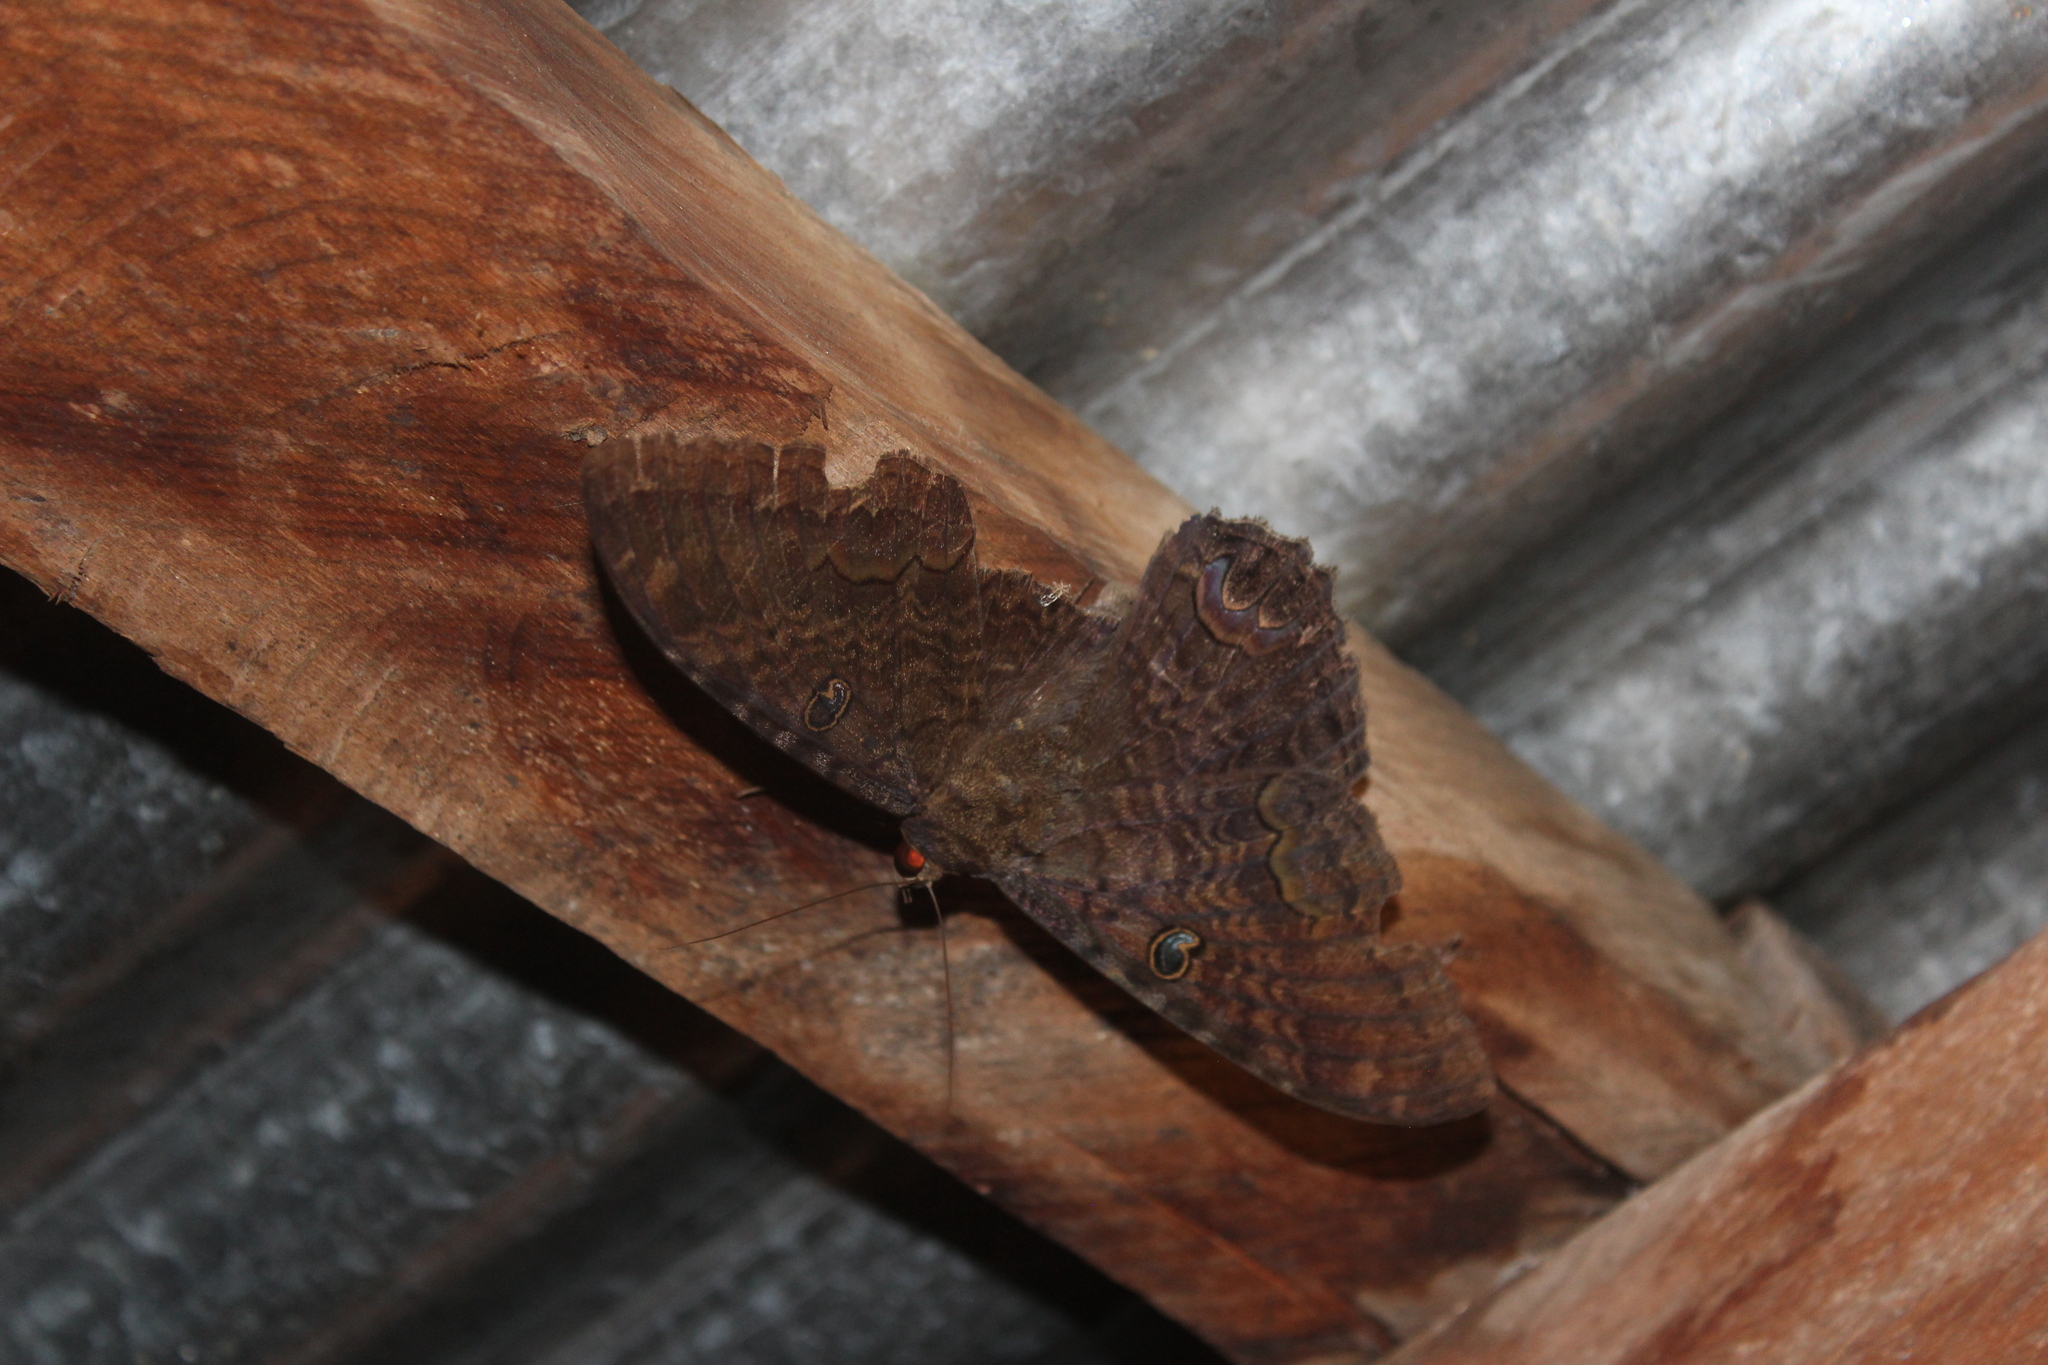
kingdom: Animalia
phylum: Arthropoda
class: Insecta
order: Lepidoptera
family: Erebidae
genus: Ascalapha
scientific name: Ascalapha odorata
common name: Black witch
